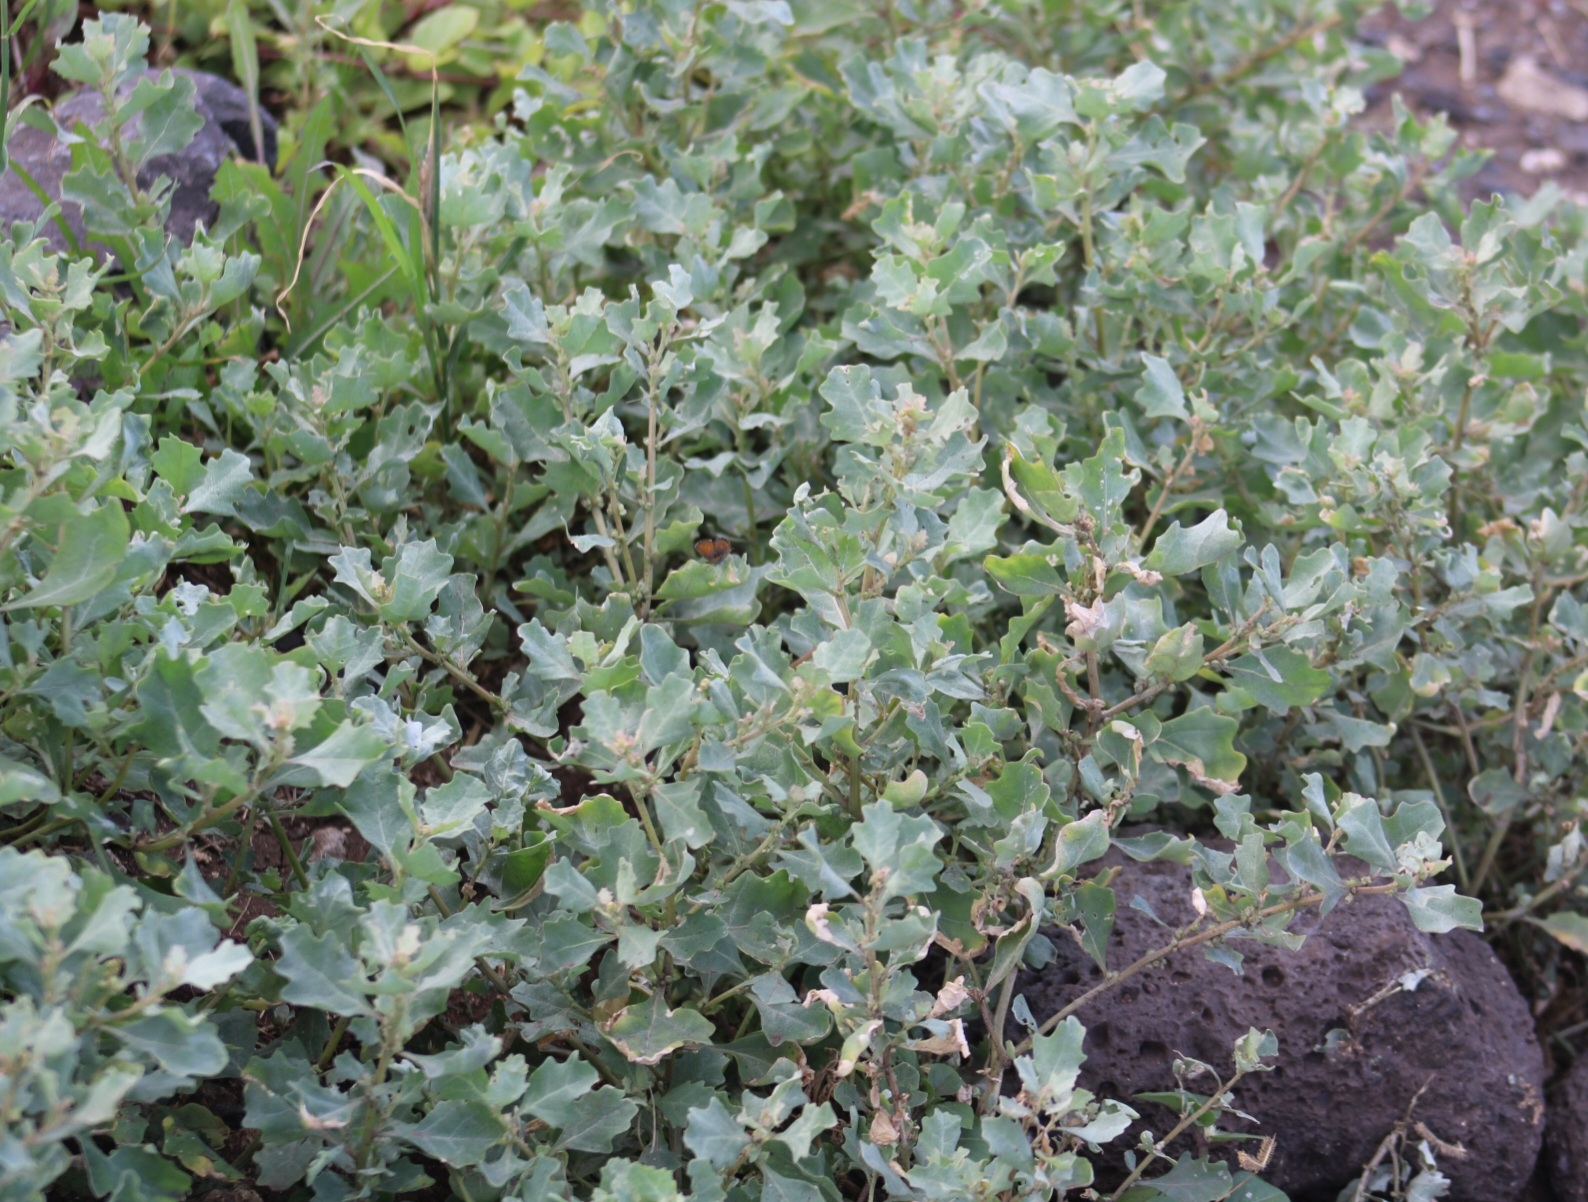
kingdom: Plantae
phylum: Tracheophyta
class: Magnoliopsida
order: Caryophyllales
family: Amaranthaceae
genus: Atriplex
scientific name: Atriplex muelleri
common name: Mueller's saltbush
